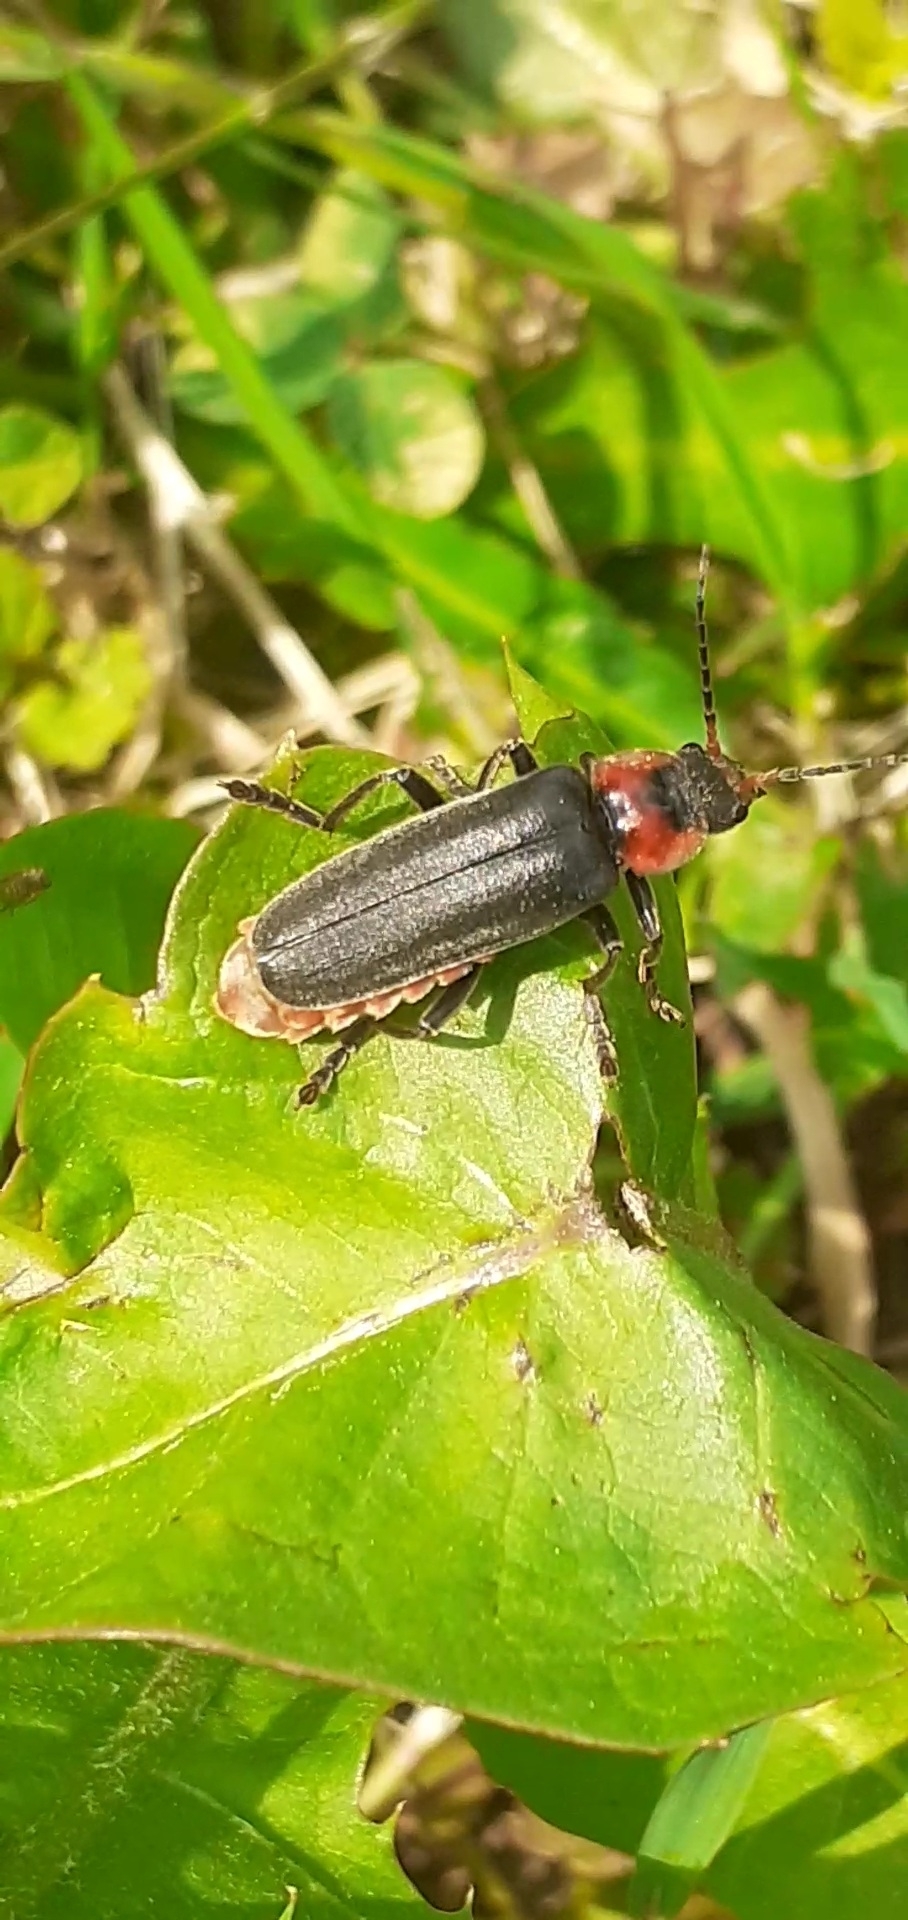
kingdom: Animalia
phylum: Arthropoda
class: Insecta
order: Coleoptera
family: Cantharidae
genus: Cantharis
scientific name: Cantharis fusca
